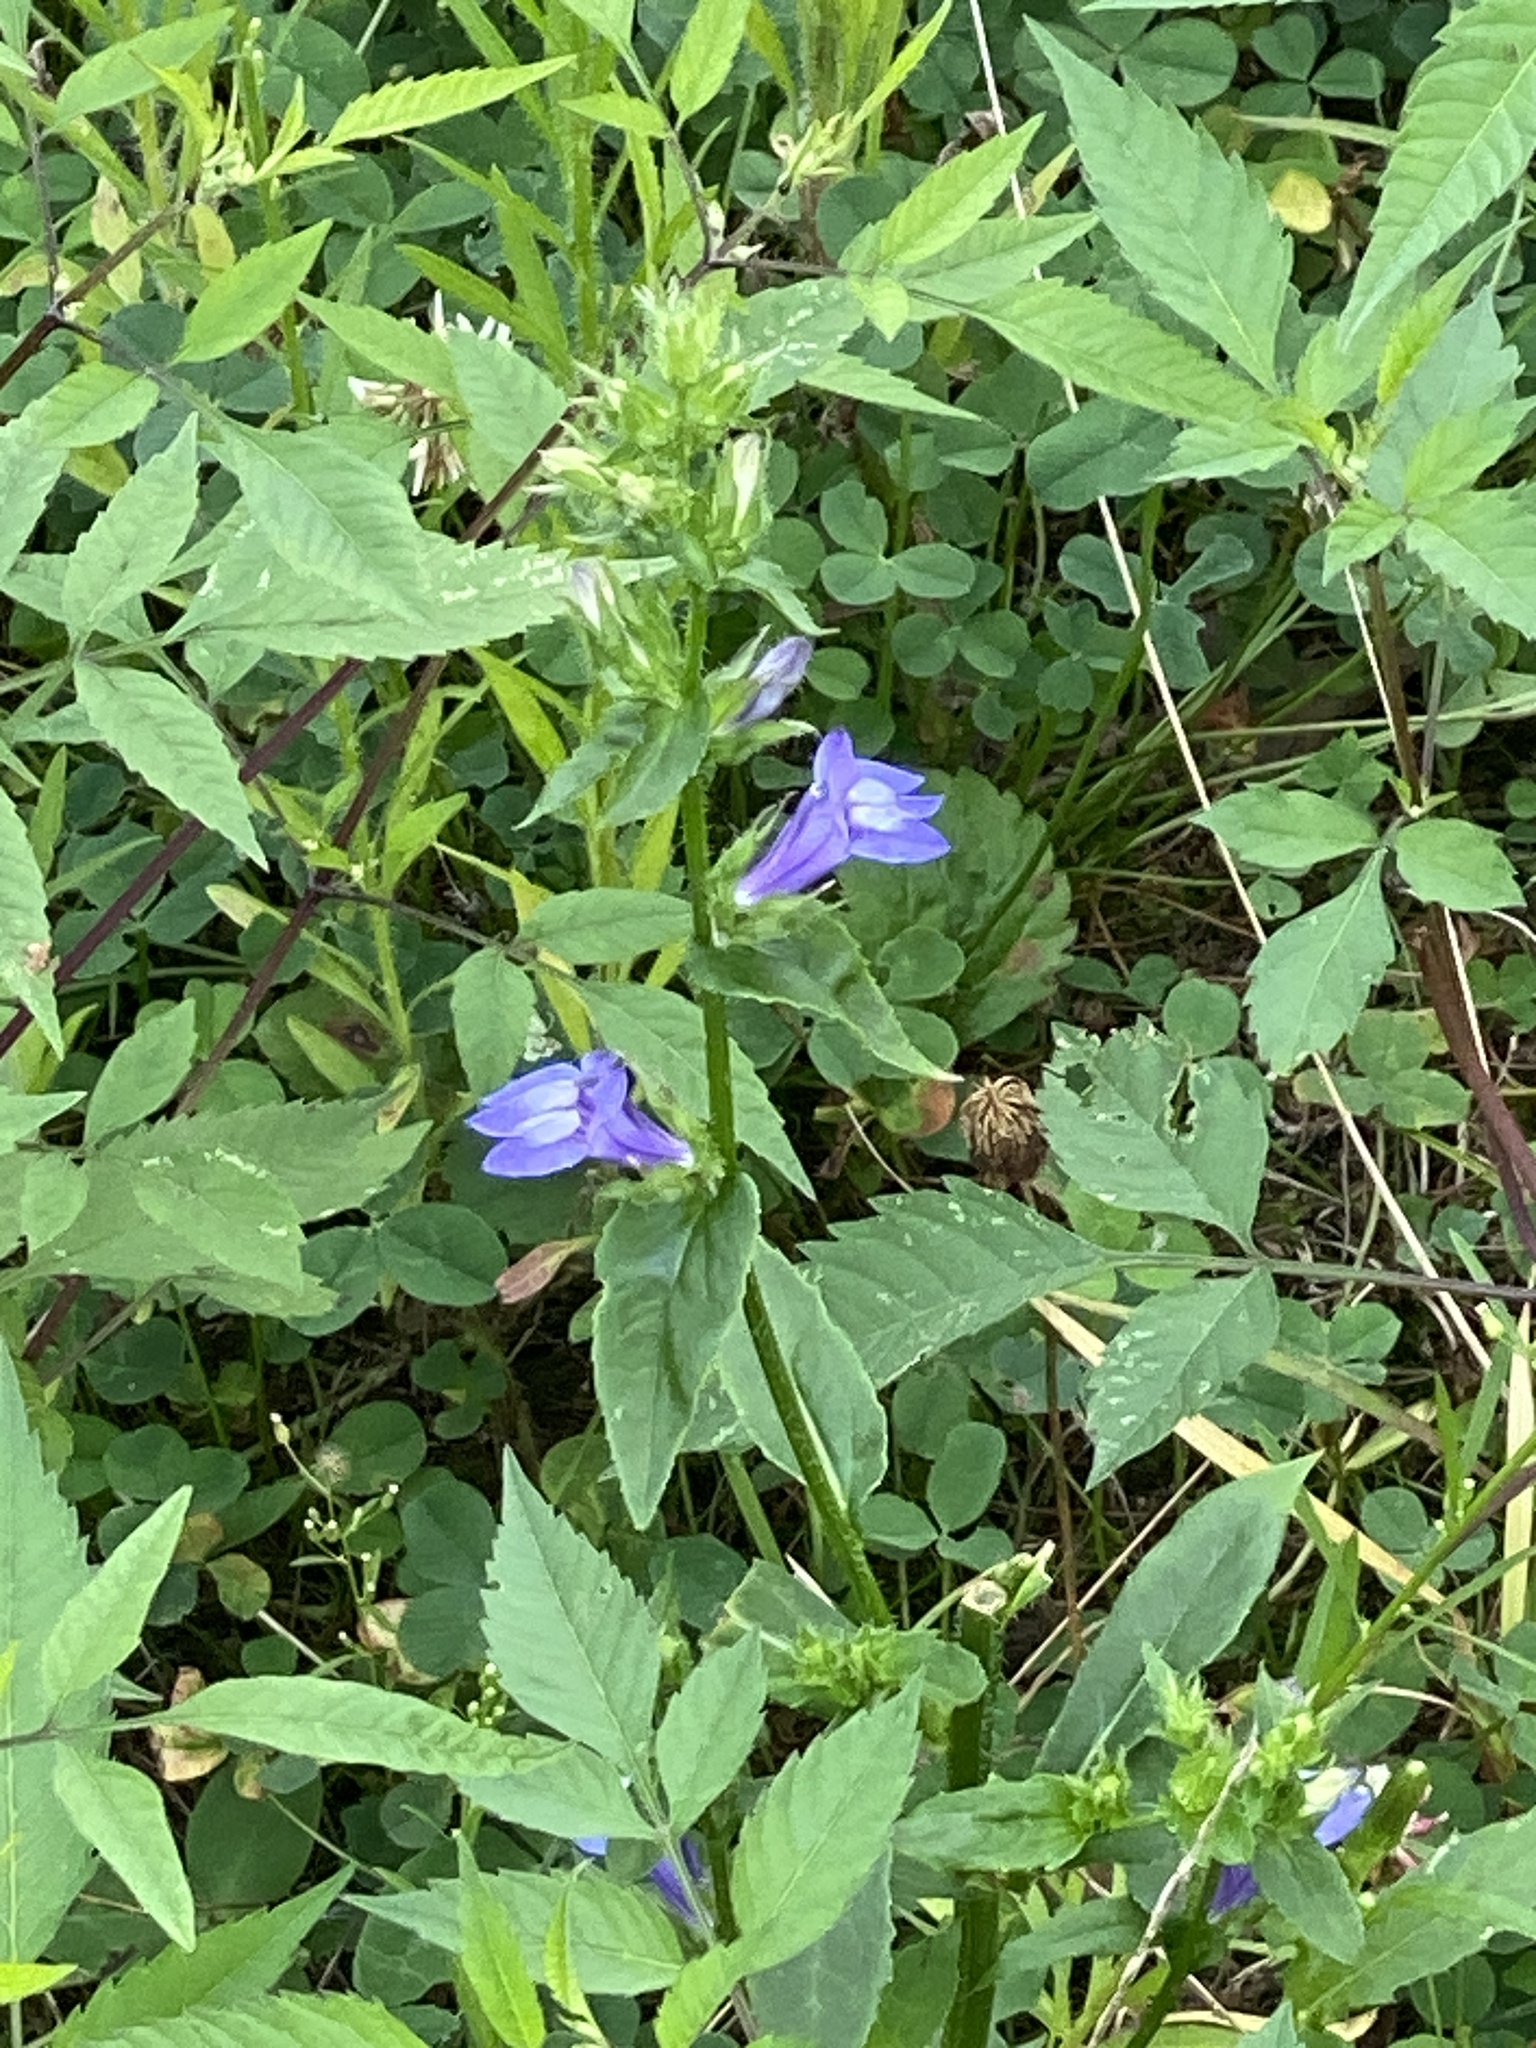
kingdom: Plantae
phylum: Tracheophyta
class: Magnoliopsida
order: Asterales
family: Campanulaceae
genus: Lobelia
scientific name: Lobelia siphilitica
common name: Great lobelia
